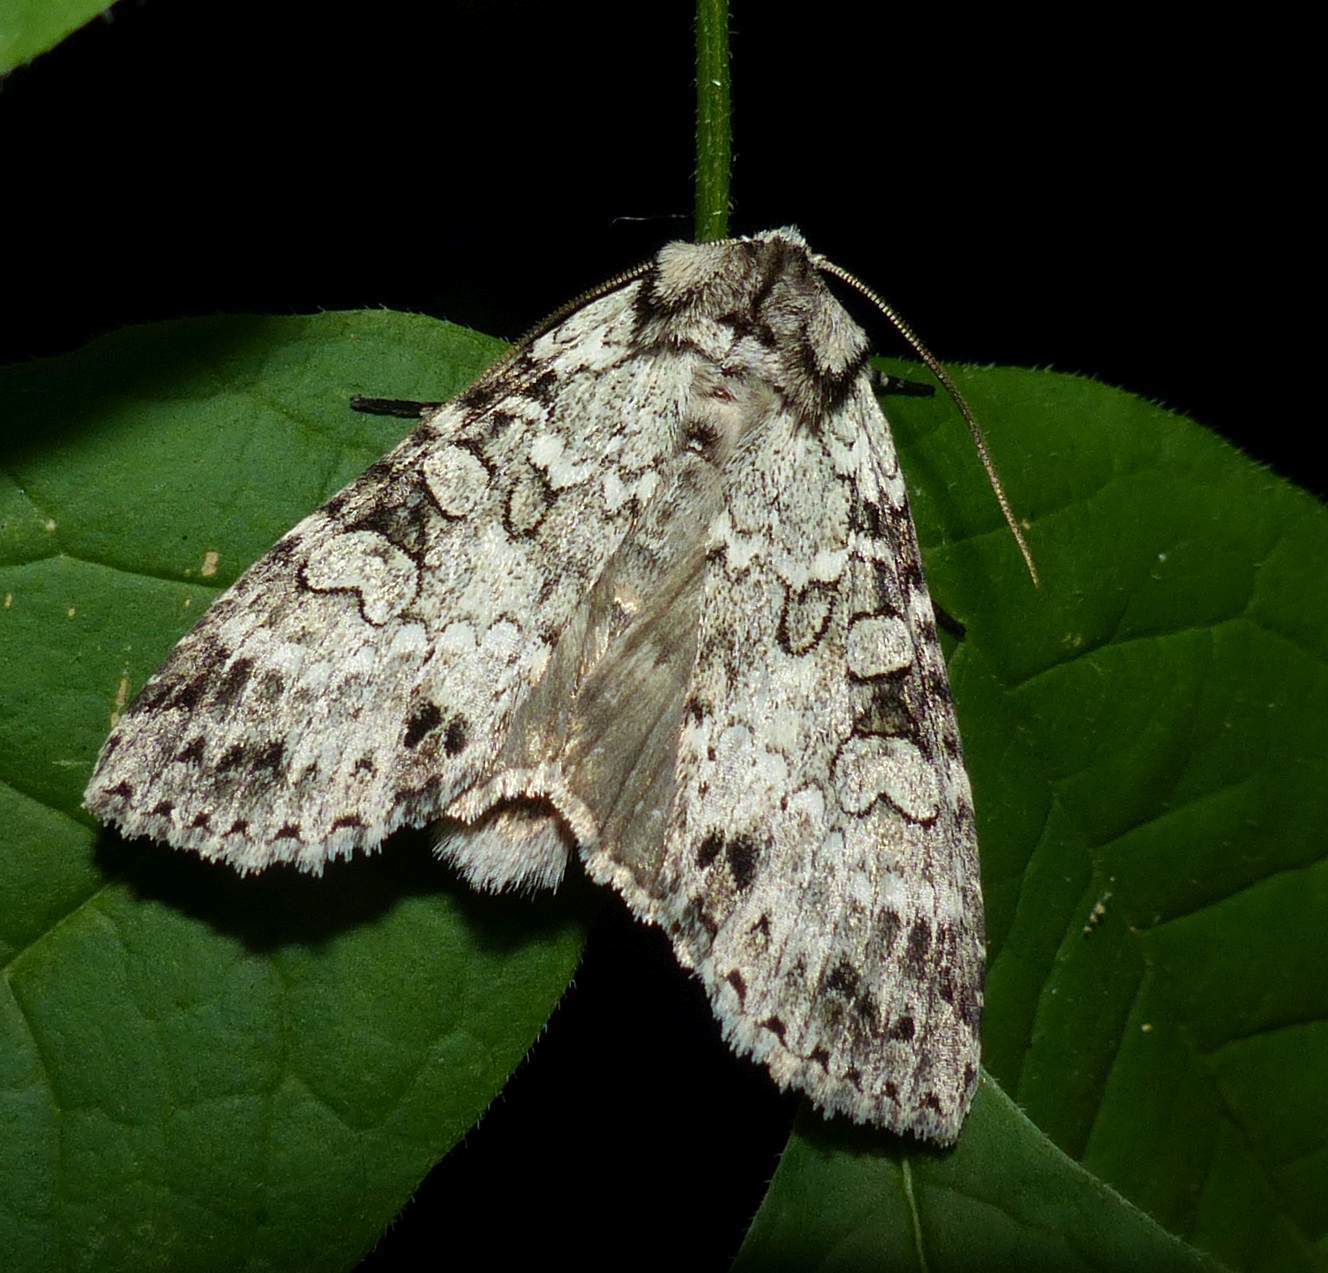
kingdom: Animalia
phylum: Arthropoda
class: Insecta
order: Lepidoptera
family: Noctuidae
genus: Polia
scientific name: Polia nimbosa
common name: Stormy arches
